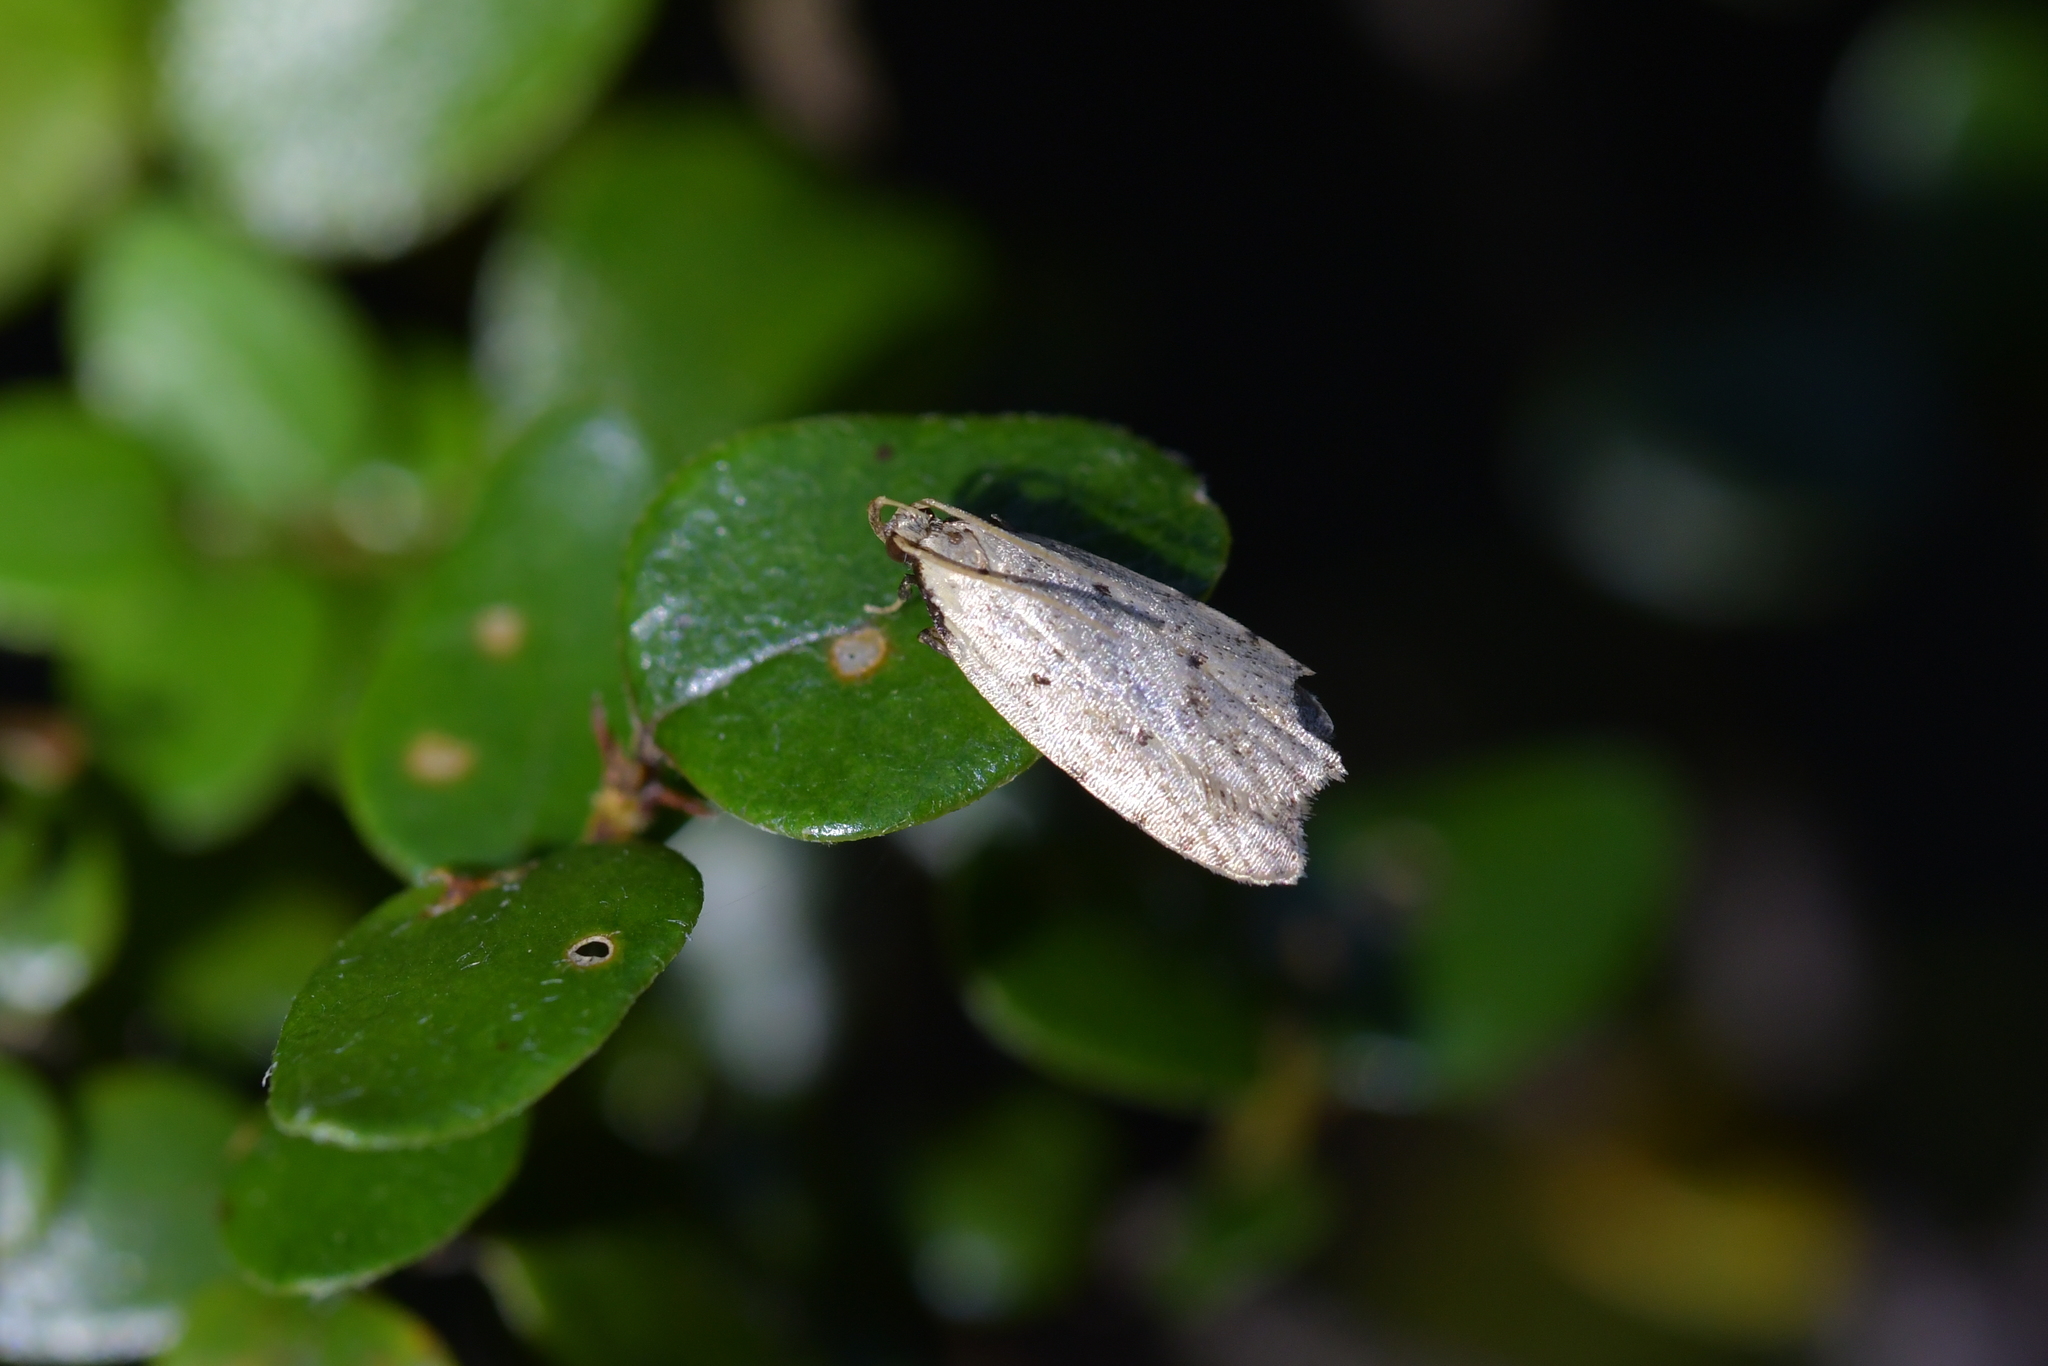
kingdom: Animalia
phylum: Arthropoda
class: Insecta
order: Lepidoptera
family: Oecophoridae
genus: Gymnobathra
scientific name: Gymnobathra calliploca
